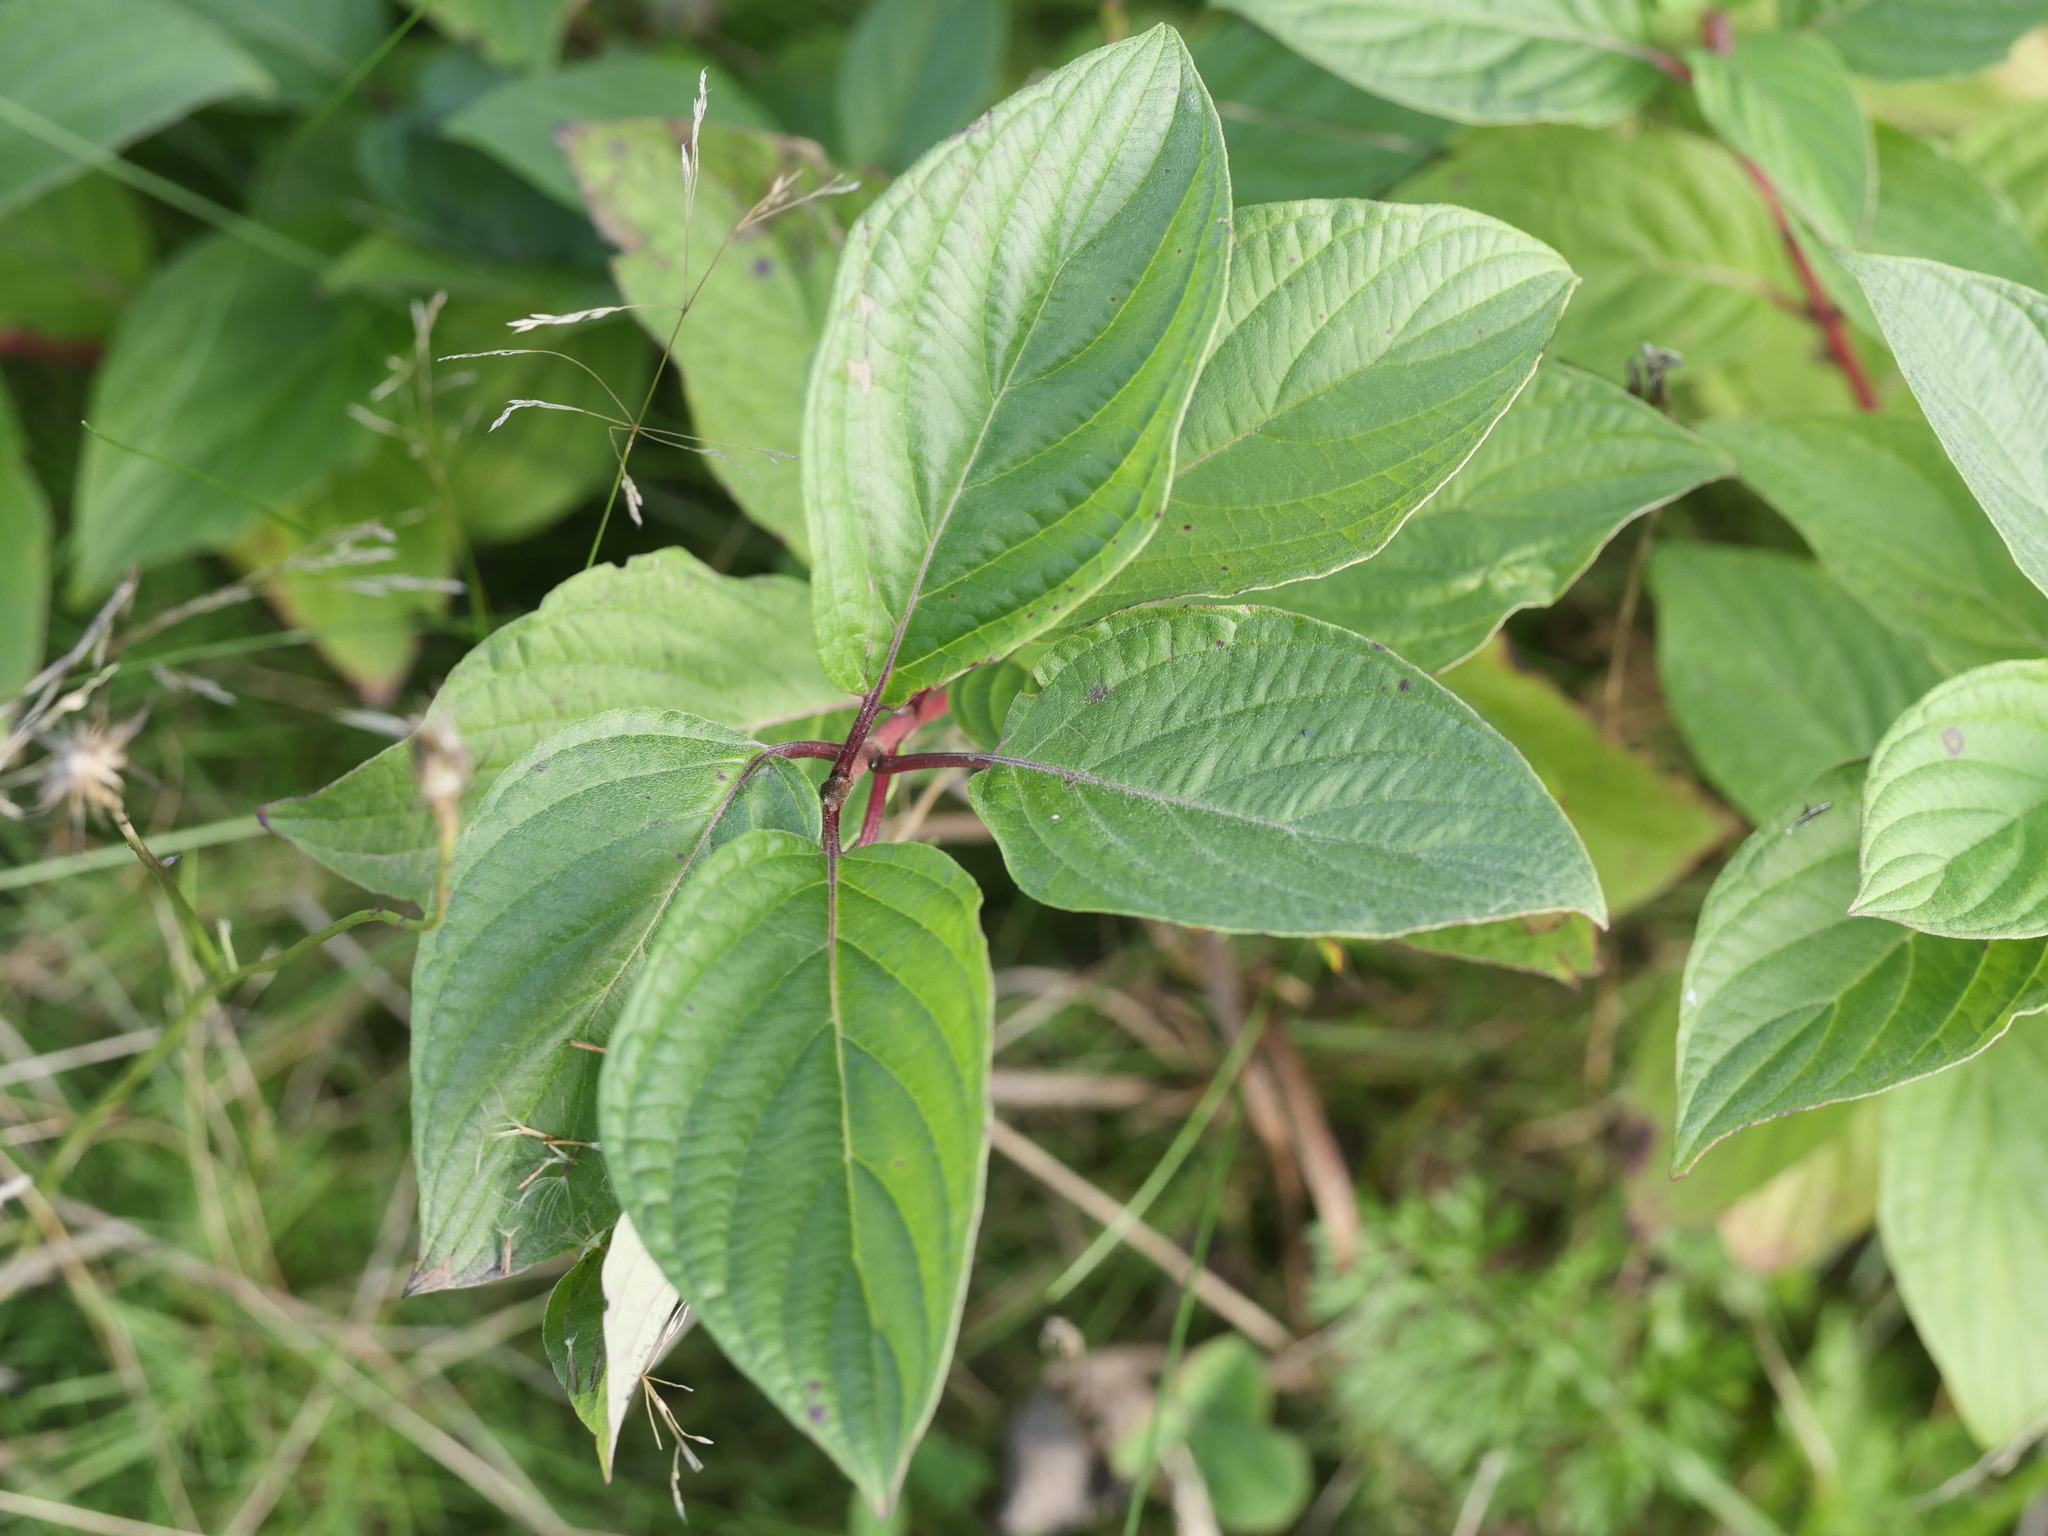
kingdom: Plantae
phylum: Tracheophyta
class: Magnoliopsida
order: Cornales
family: Cornaceae
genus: Cornus
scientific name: Cornus sericea
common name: Red-osier dogwood
